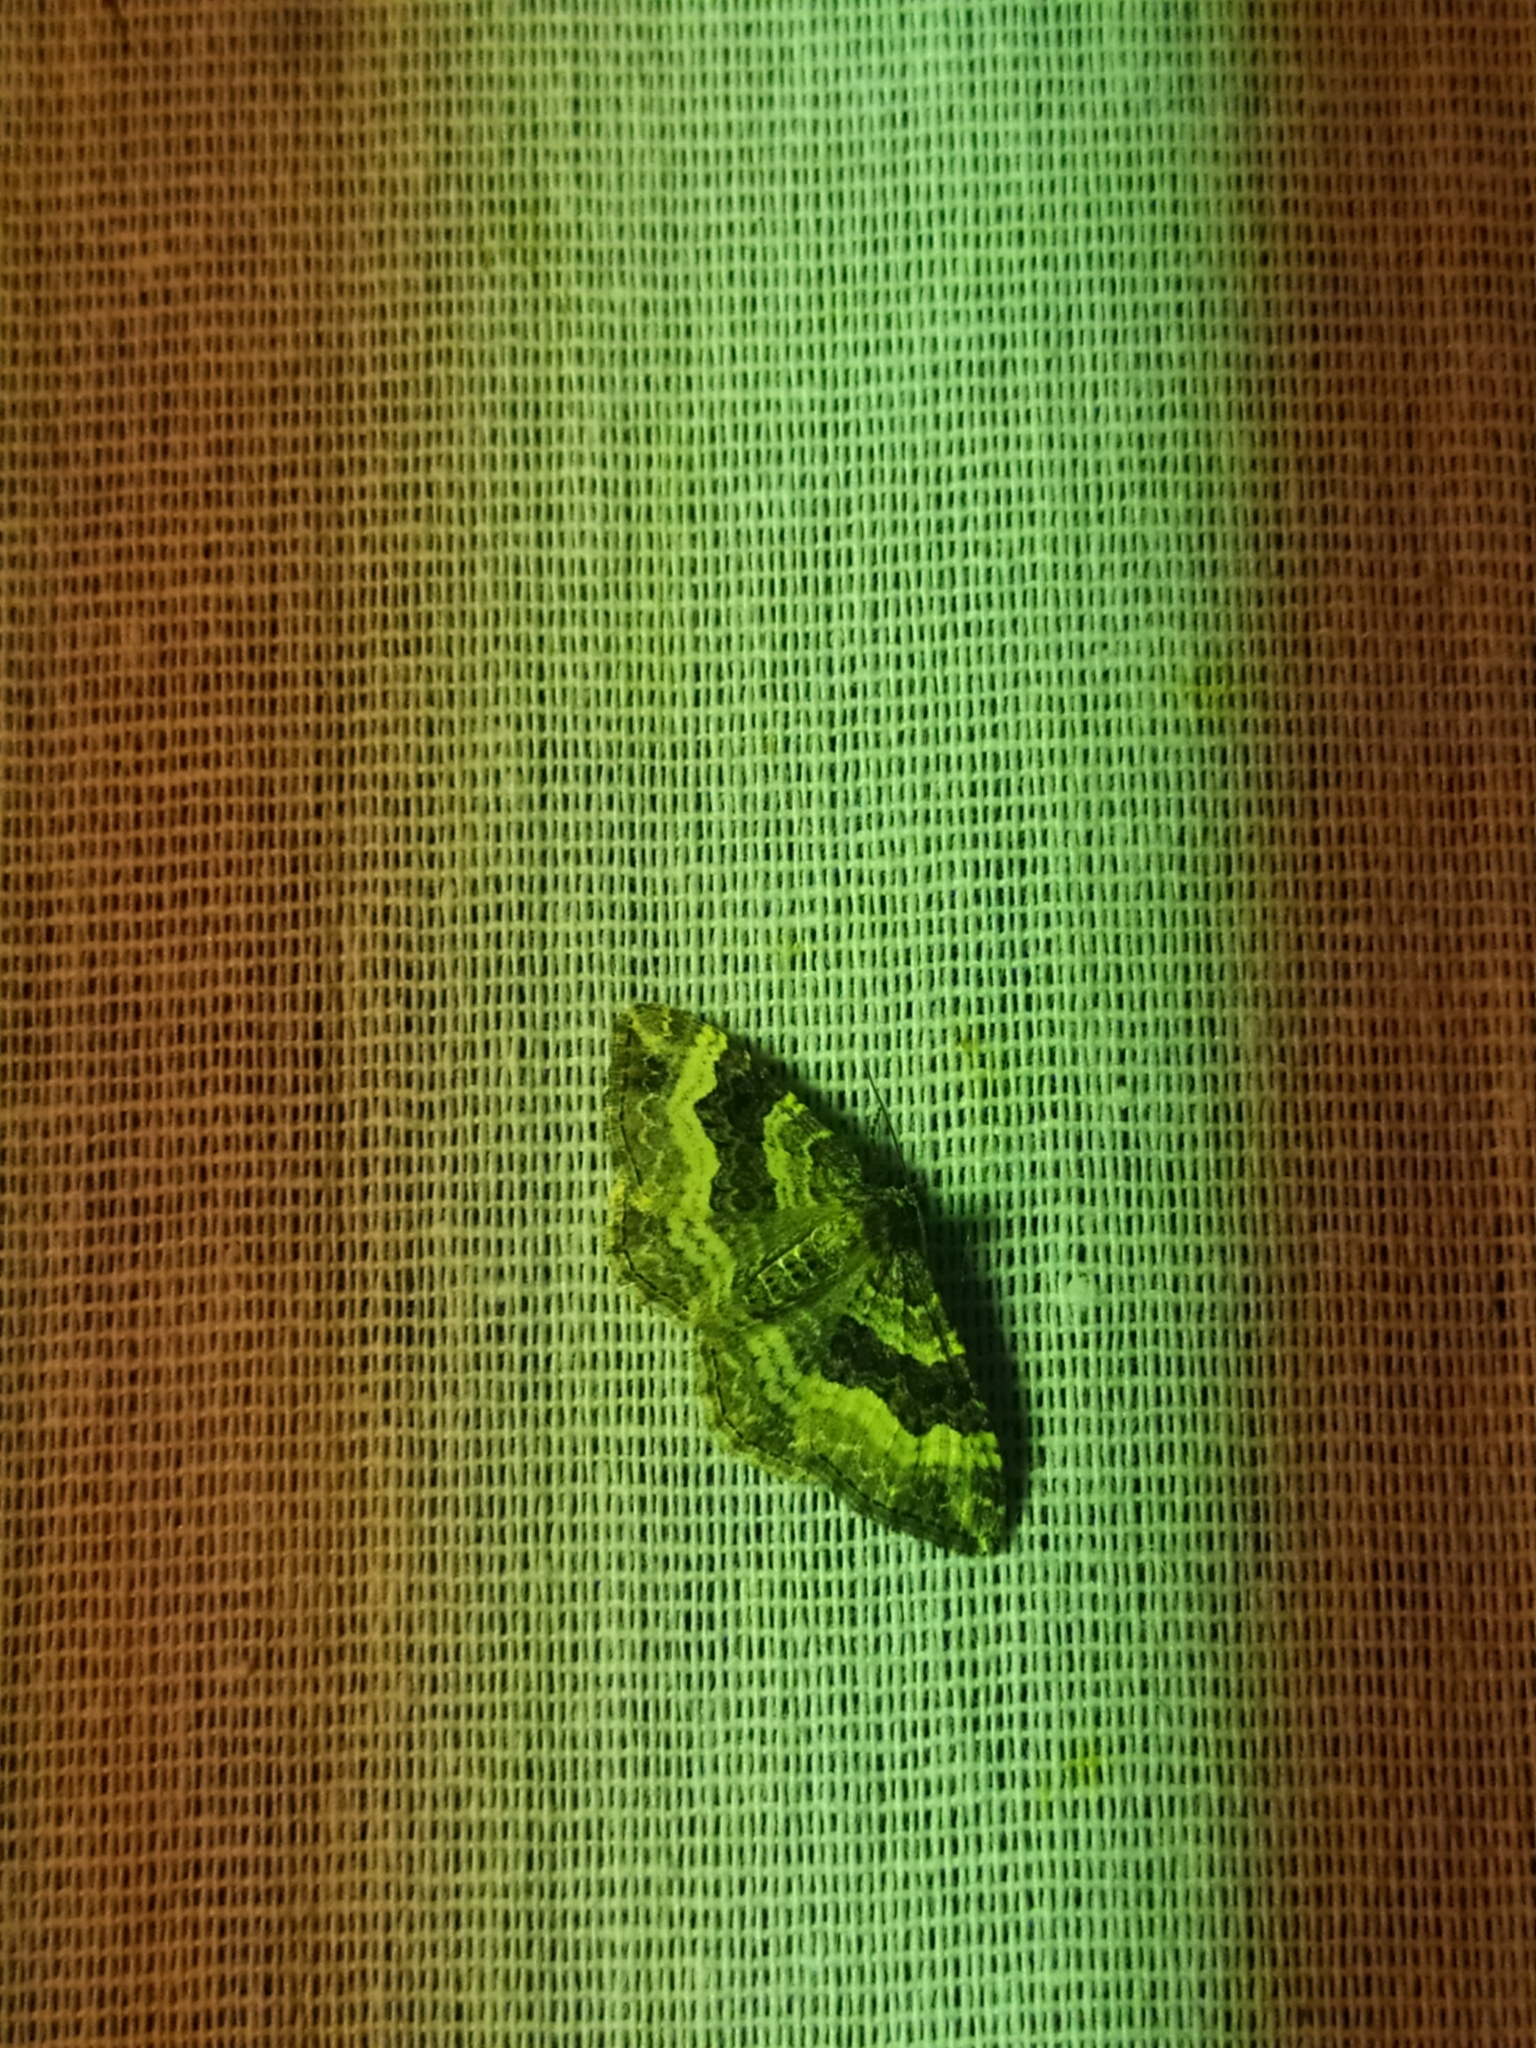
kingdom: Animalia
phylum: Arthropoda
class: Insecta
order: Lepidoptera
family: Geometridae
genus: Epirrhoe
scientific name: Epirrhoe alternata
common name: Common carpet
